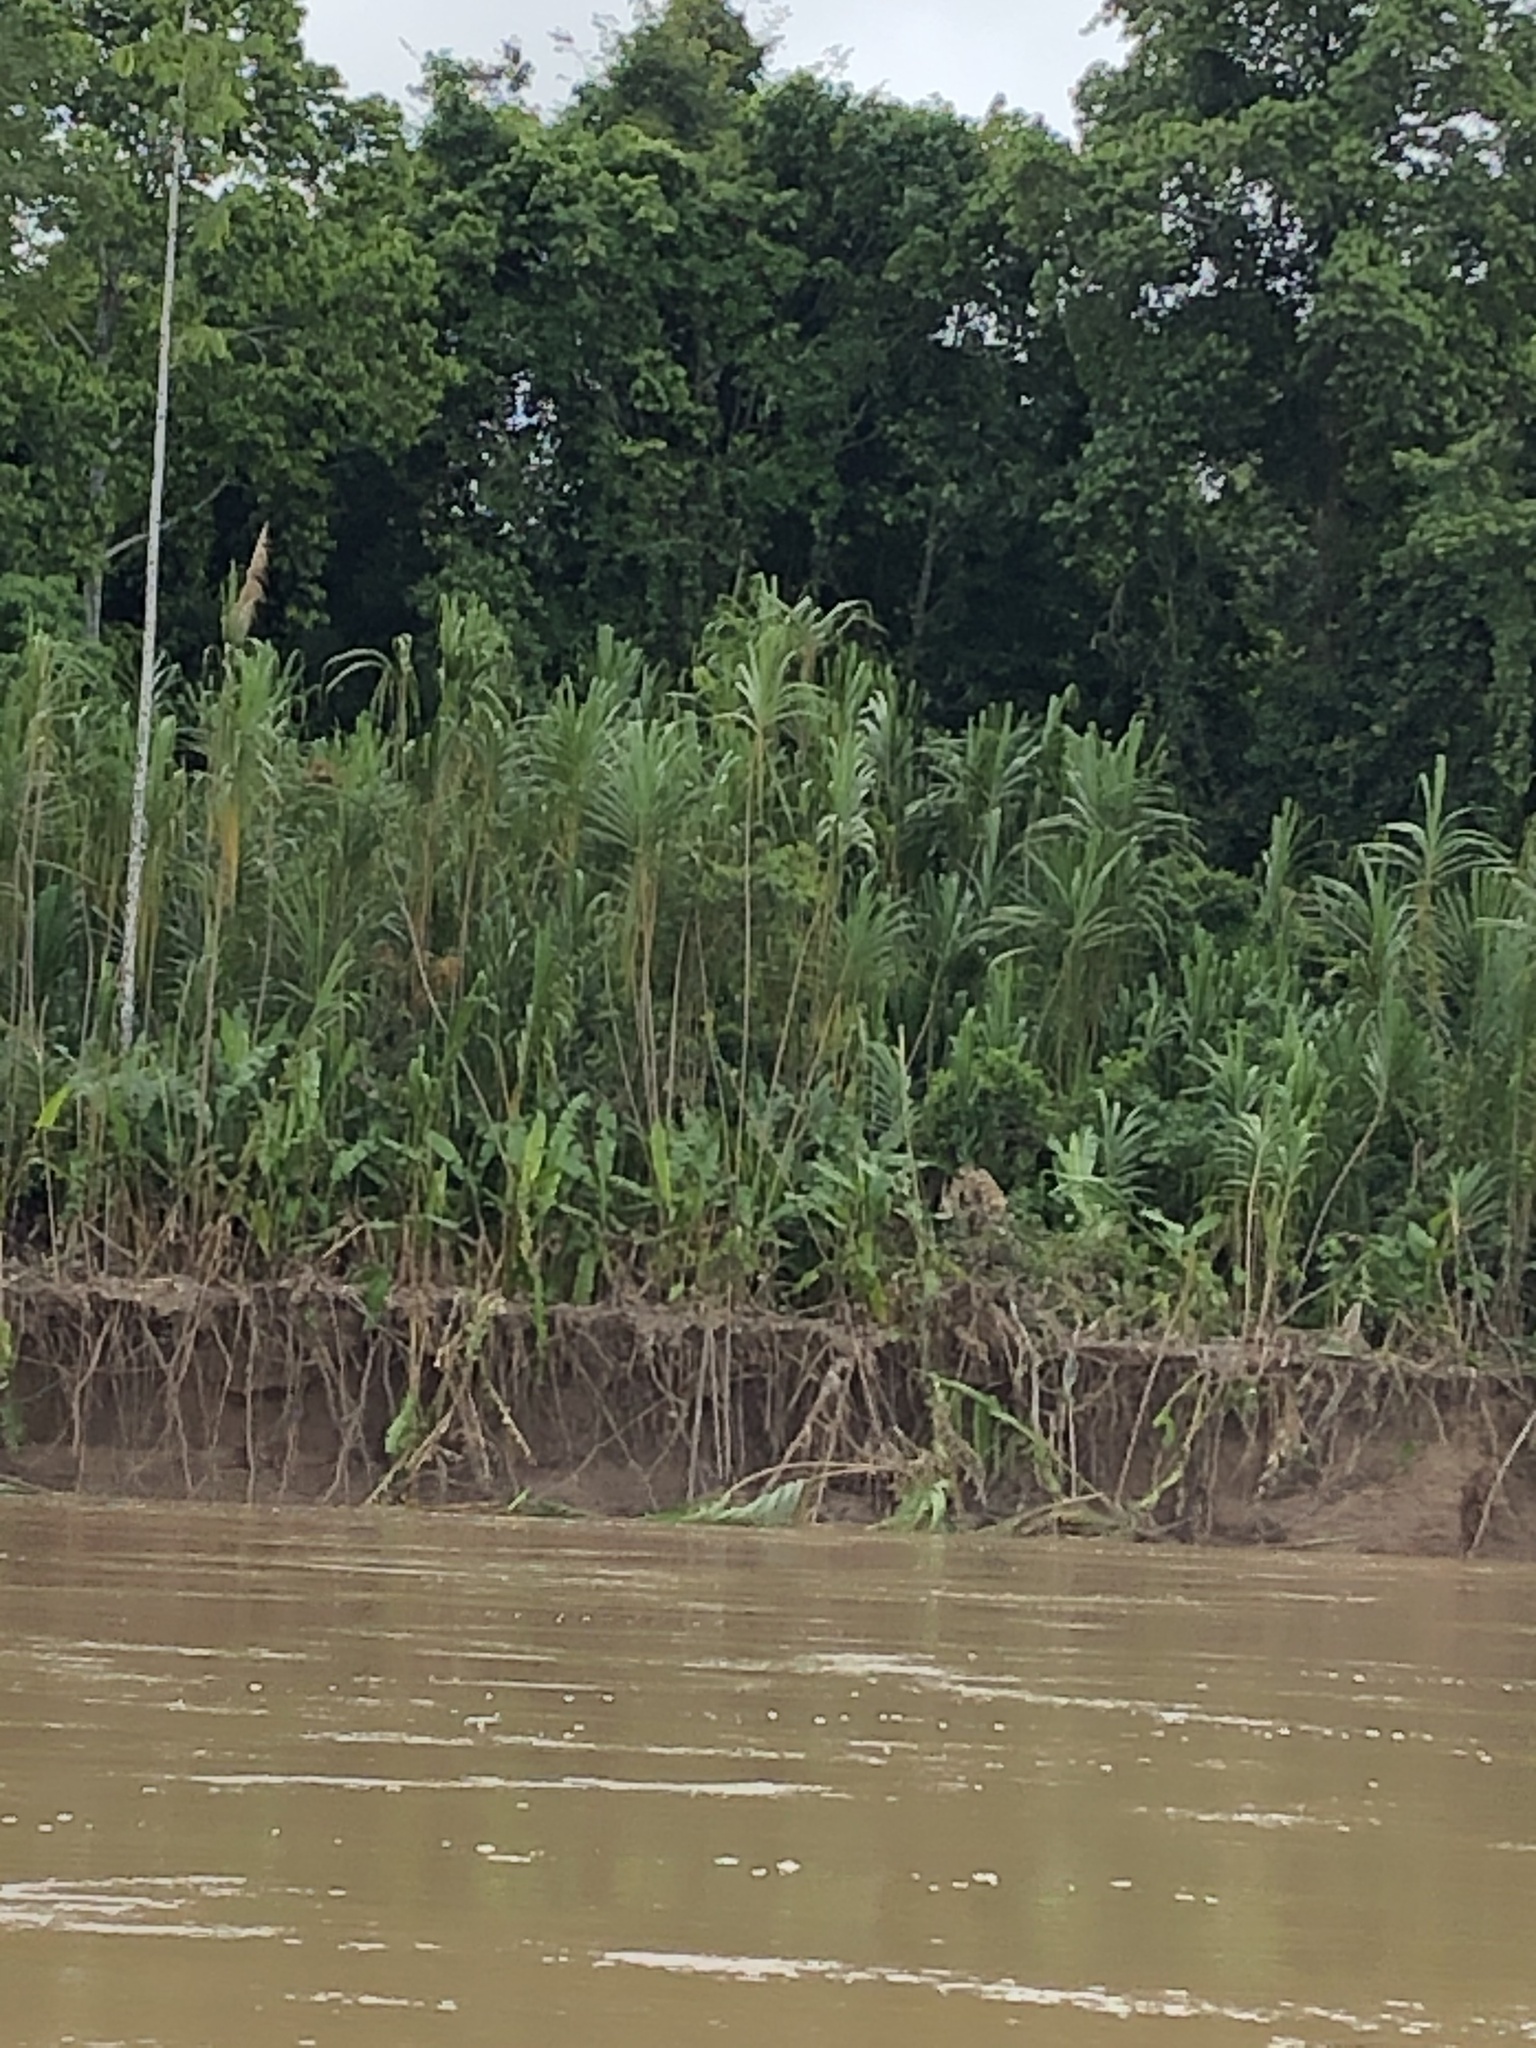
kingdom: Plantae
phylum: Tracheophyta
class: Liliopsida
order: Poales
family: Poaceae
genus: Gynerium
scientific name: Gynerium sagittatum
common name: Wild cane
